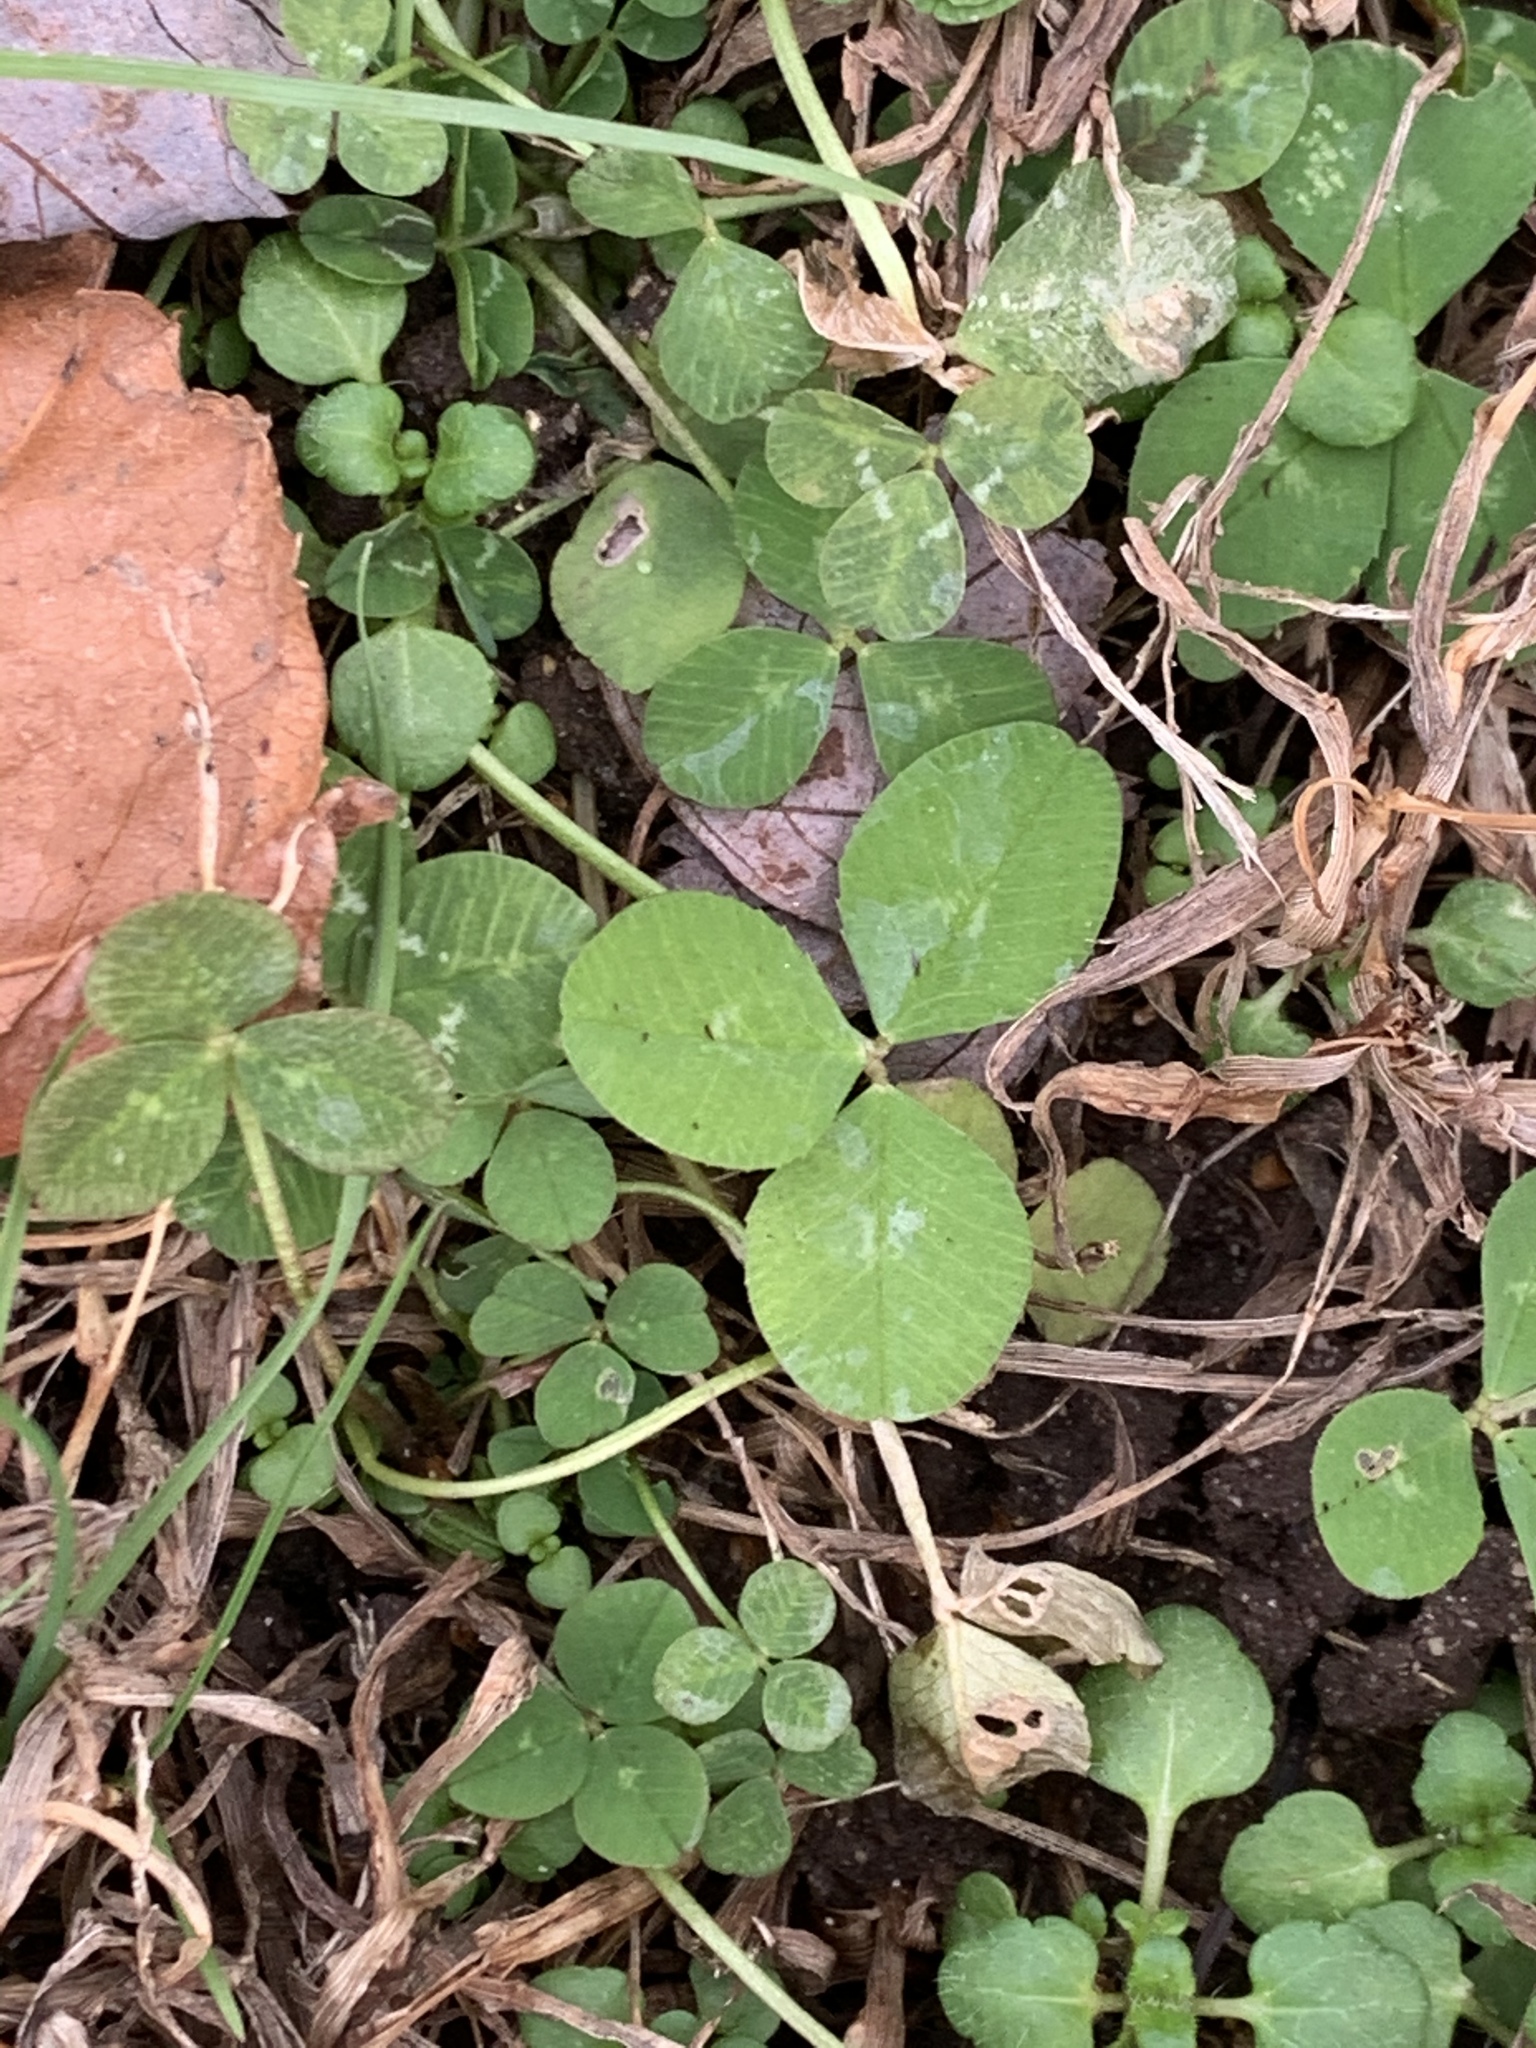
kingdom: Plantae
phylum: Tracheophyta
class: Magnoliopsida
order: Fabales
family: Fabaceae
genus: Trifolium
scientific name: Trifolium repens
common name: White clover
